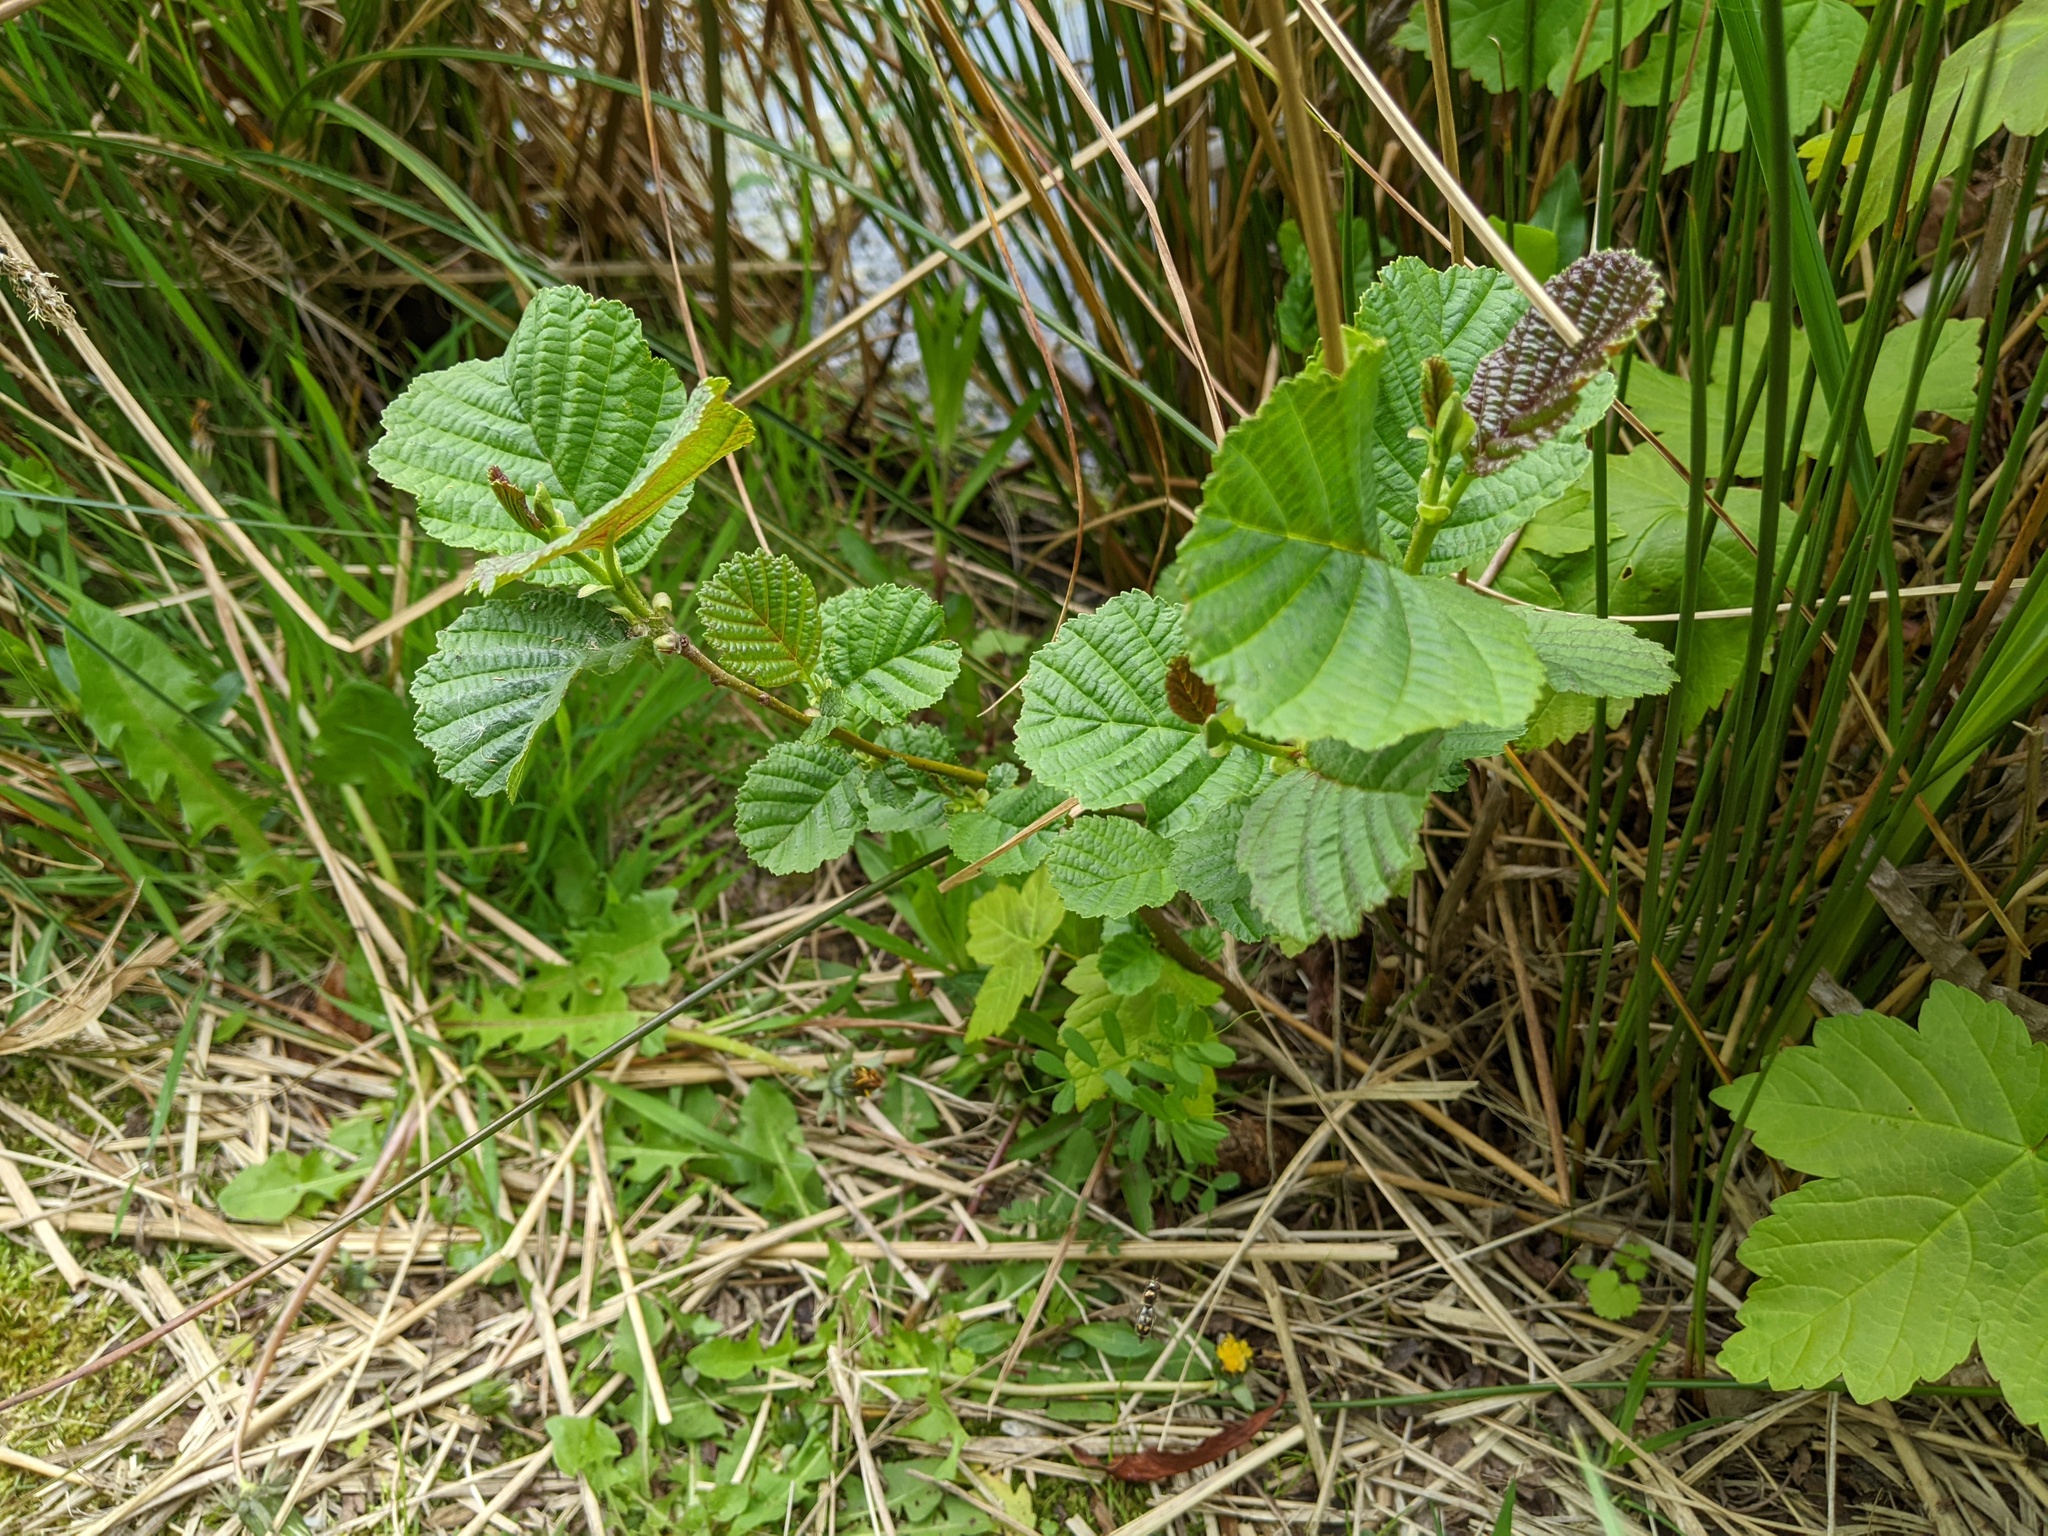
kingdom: Plantae
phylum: Tracheophyta
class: Magnoliopsida
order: Fagales
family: Betulaceae
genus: Alnus
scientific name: Alnus glutinosa
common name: Black alder
